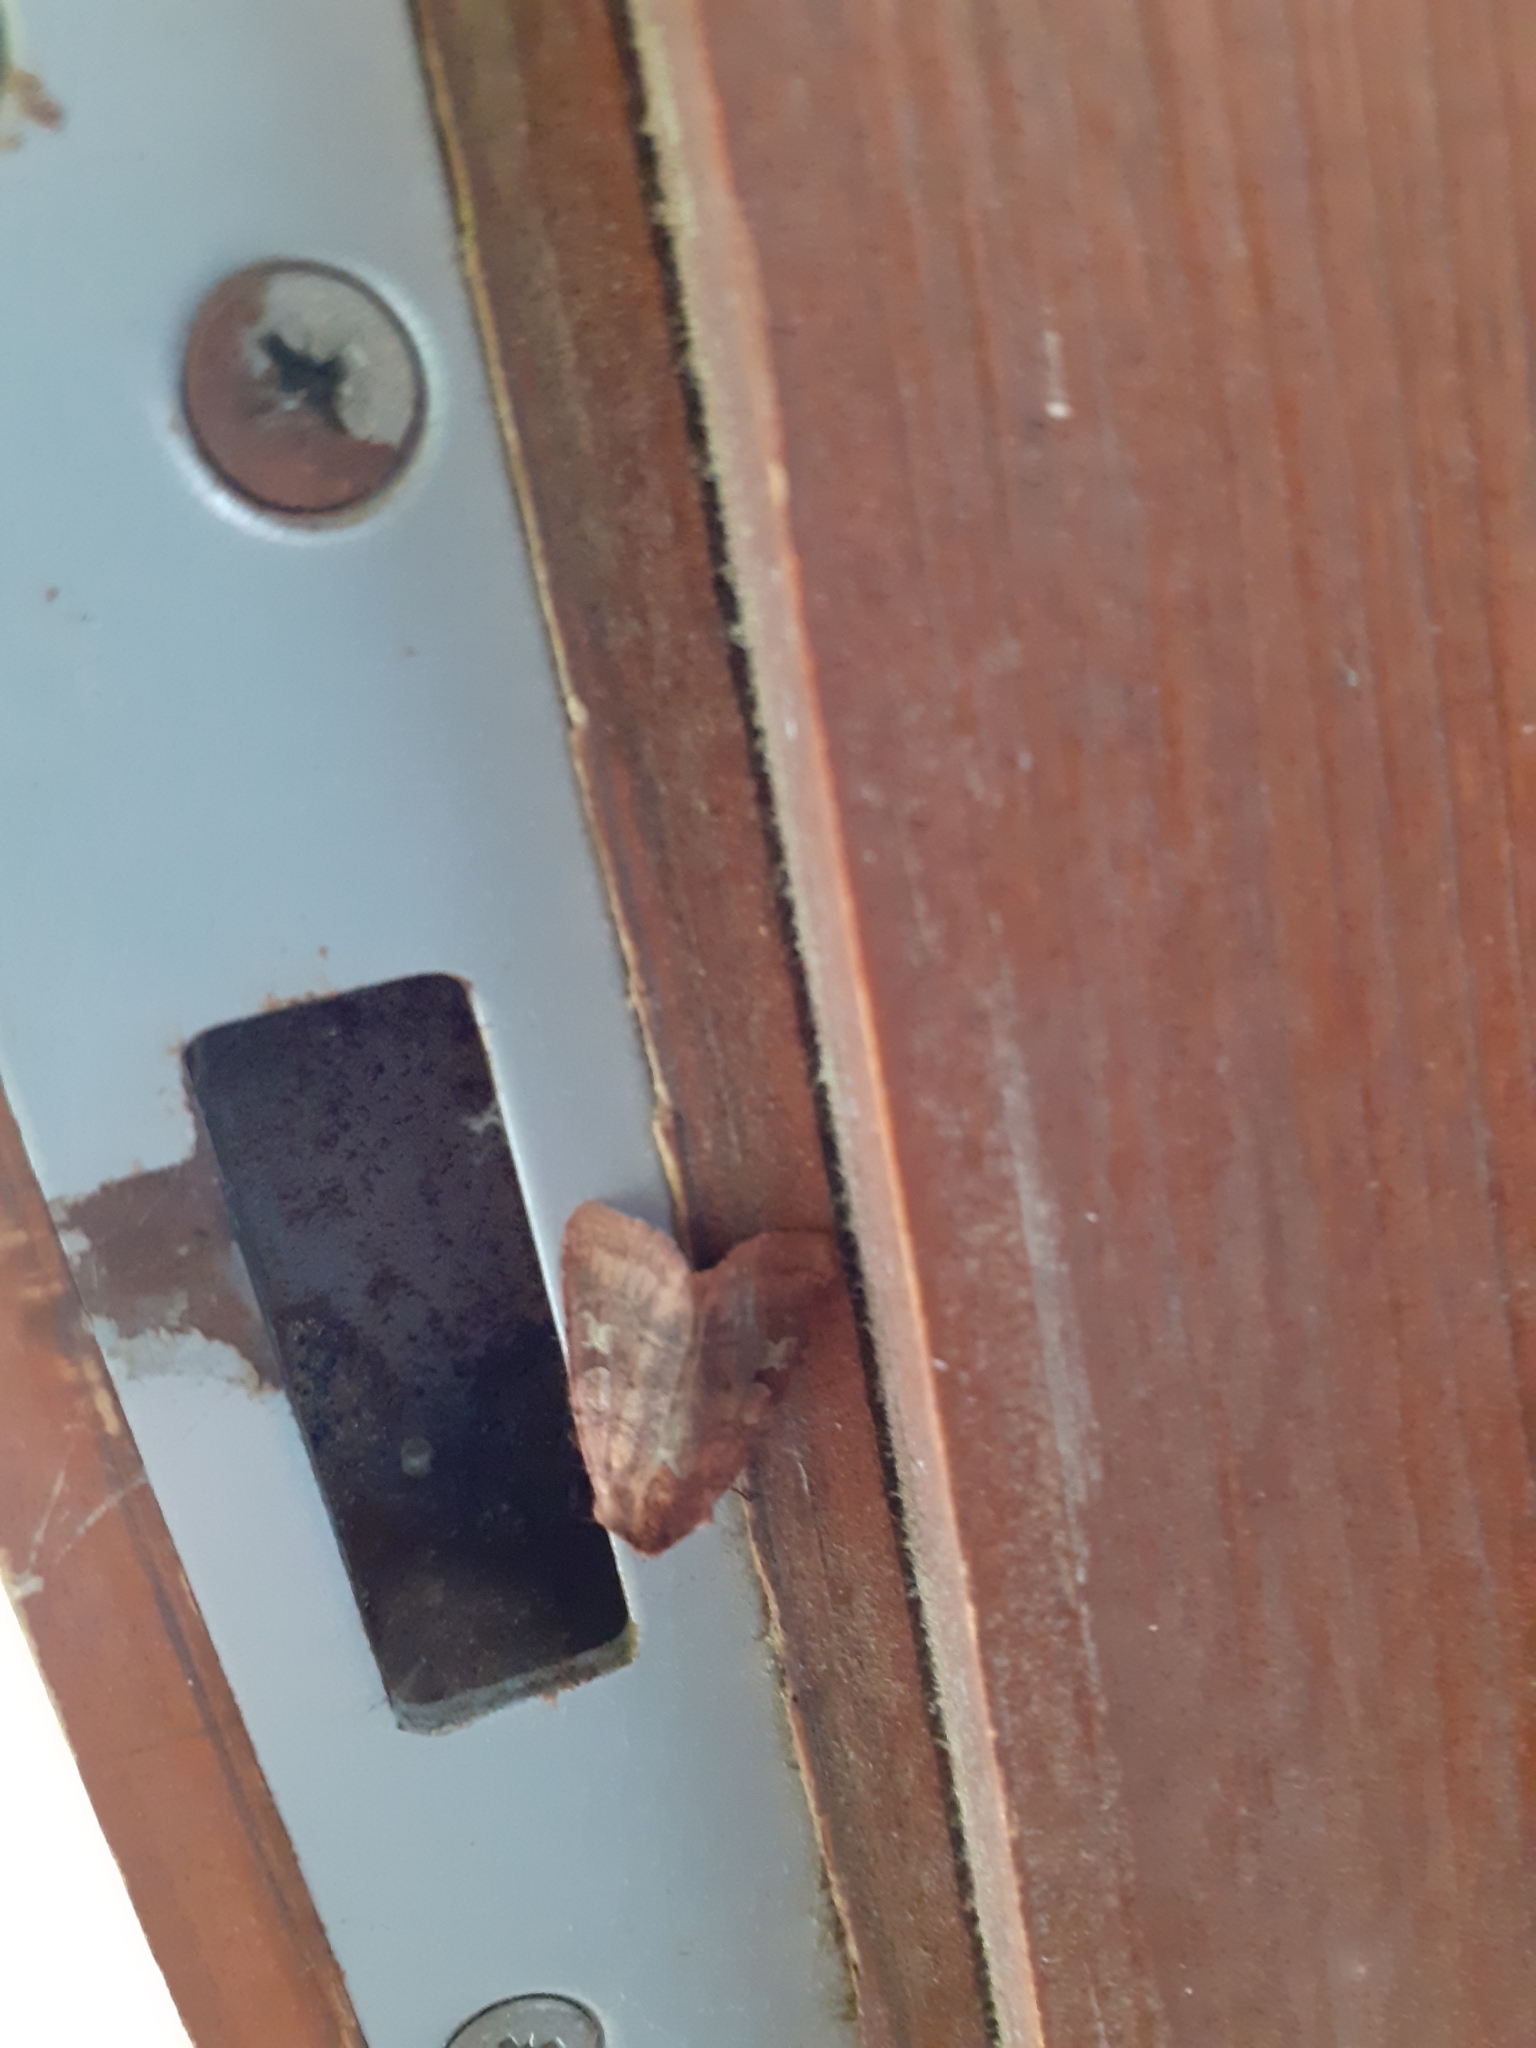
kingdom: Animalia
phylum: Arthropoda
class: Insecta
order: Lepidoptera
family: Noctuidae
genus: Diarsia
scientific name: Diarsia rubi
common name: Small square-spot
